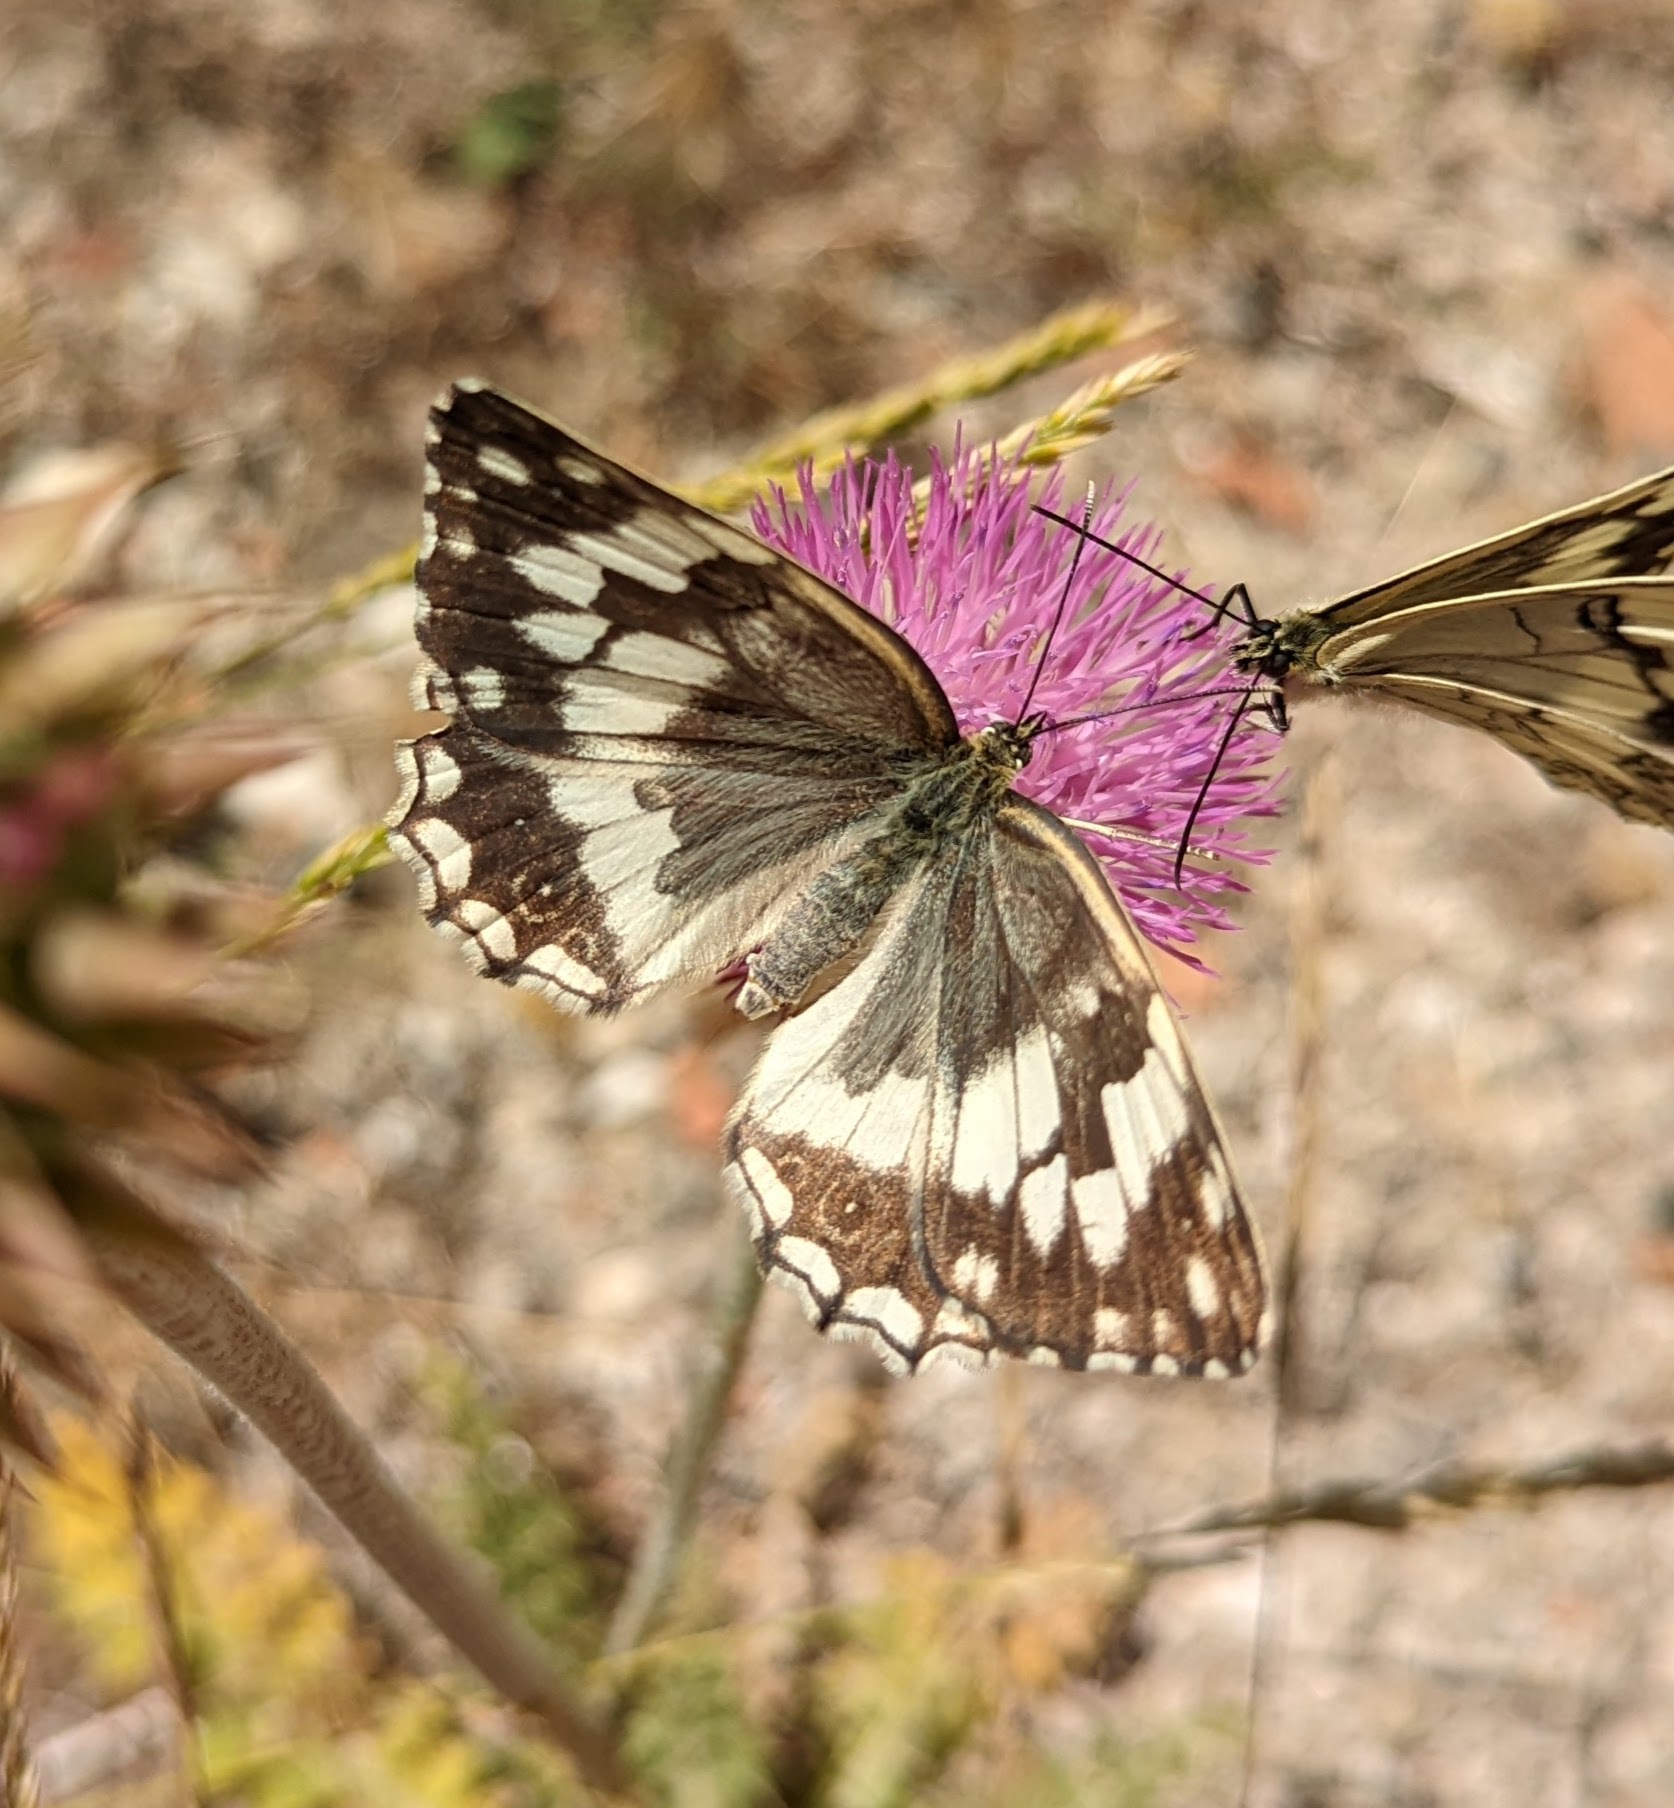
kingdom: Animalia
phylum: Arthropoda
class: Insecta
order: Lepidoptera
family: Nymphalidae
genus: Melanargia
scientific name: Melanargia larissa
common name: Balkan marbled white
